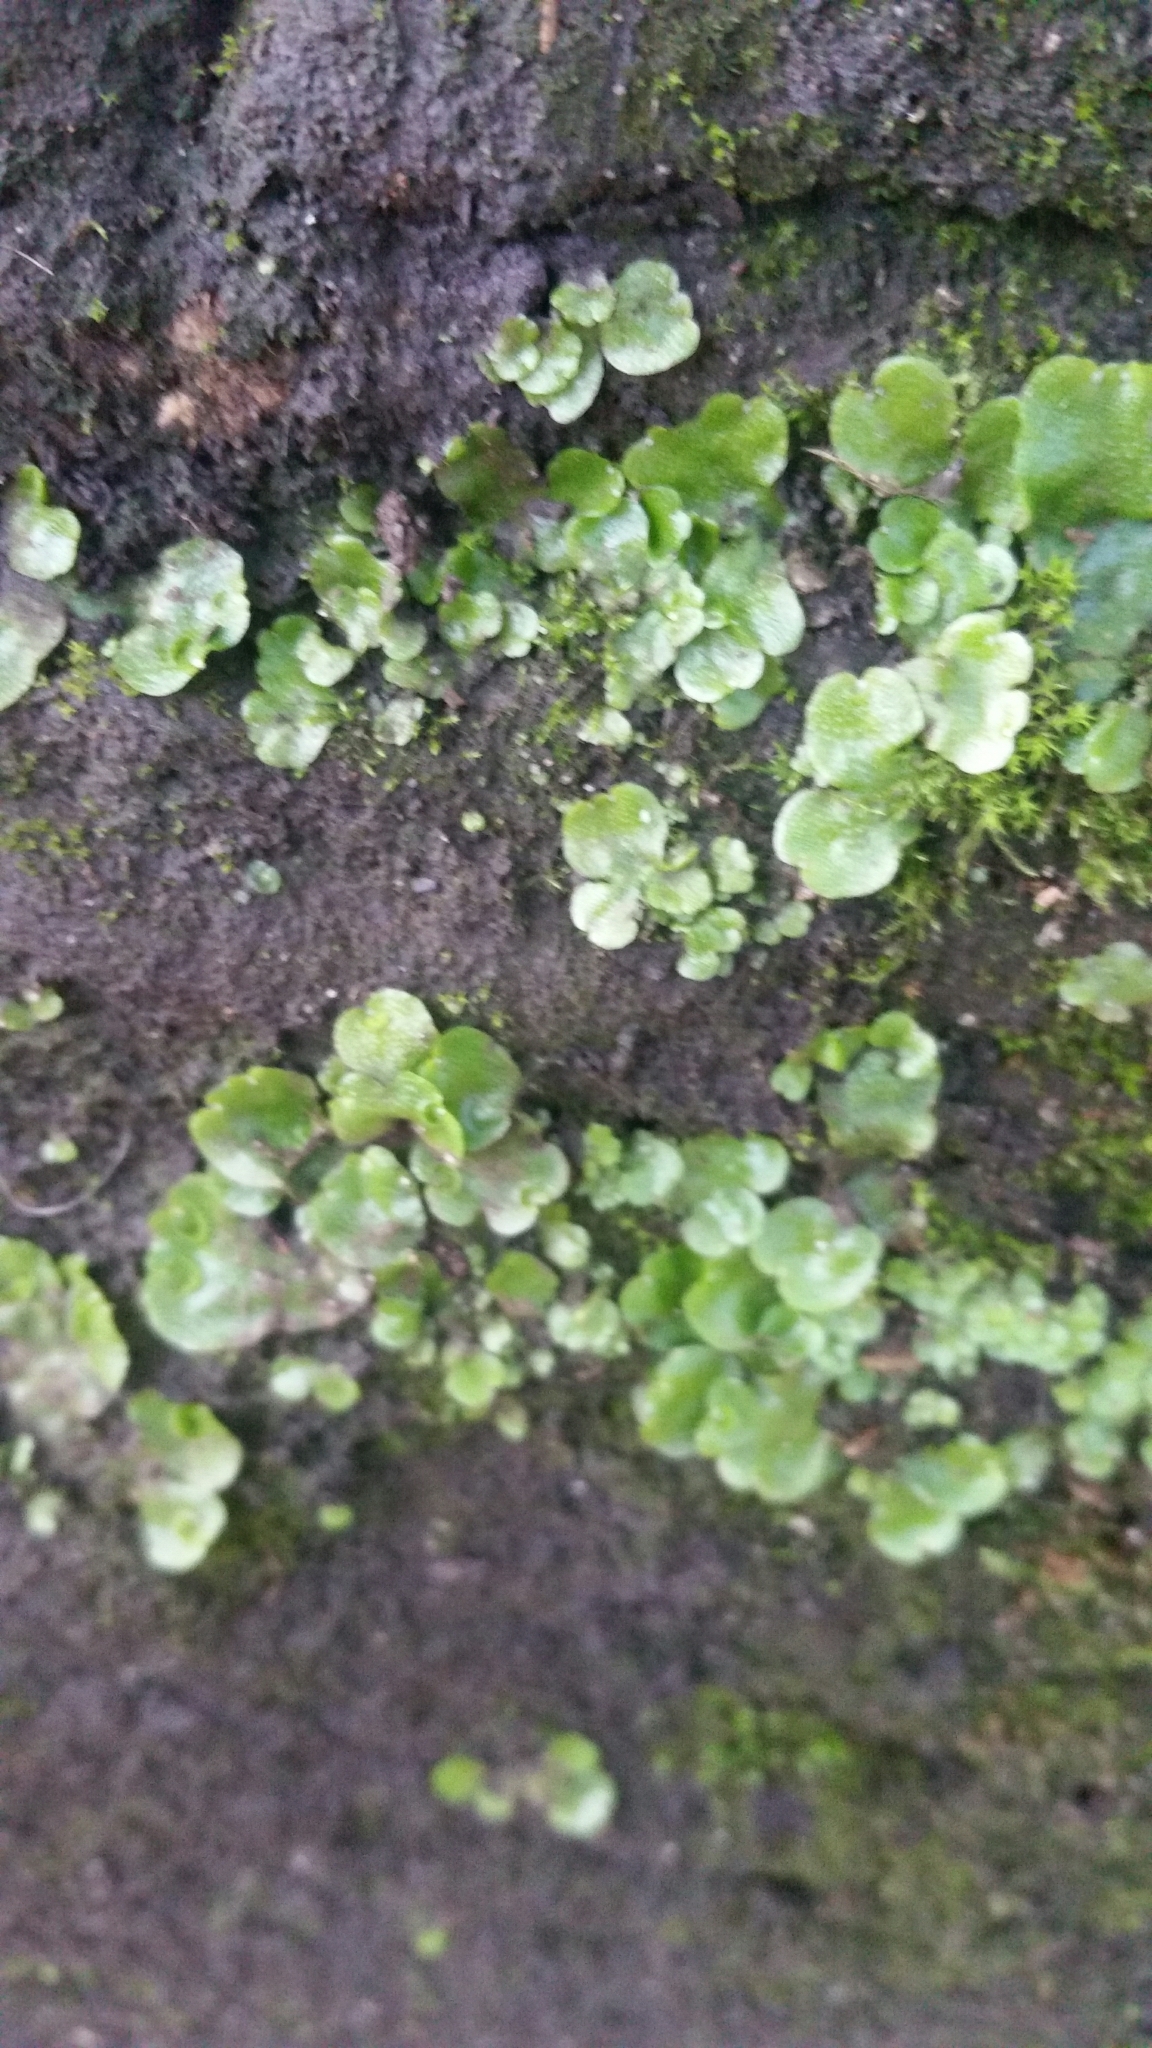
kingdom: Plantae
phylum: Marchantiophyta
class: Marchantiopsida
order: Lunulariales
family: Lunulariaceae
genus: Lunularia
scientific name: Lunularia cruciata
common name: Crescent-cup liverwort
